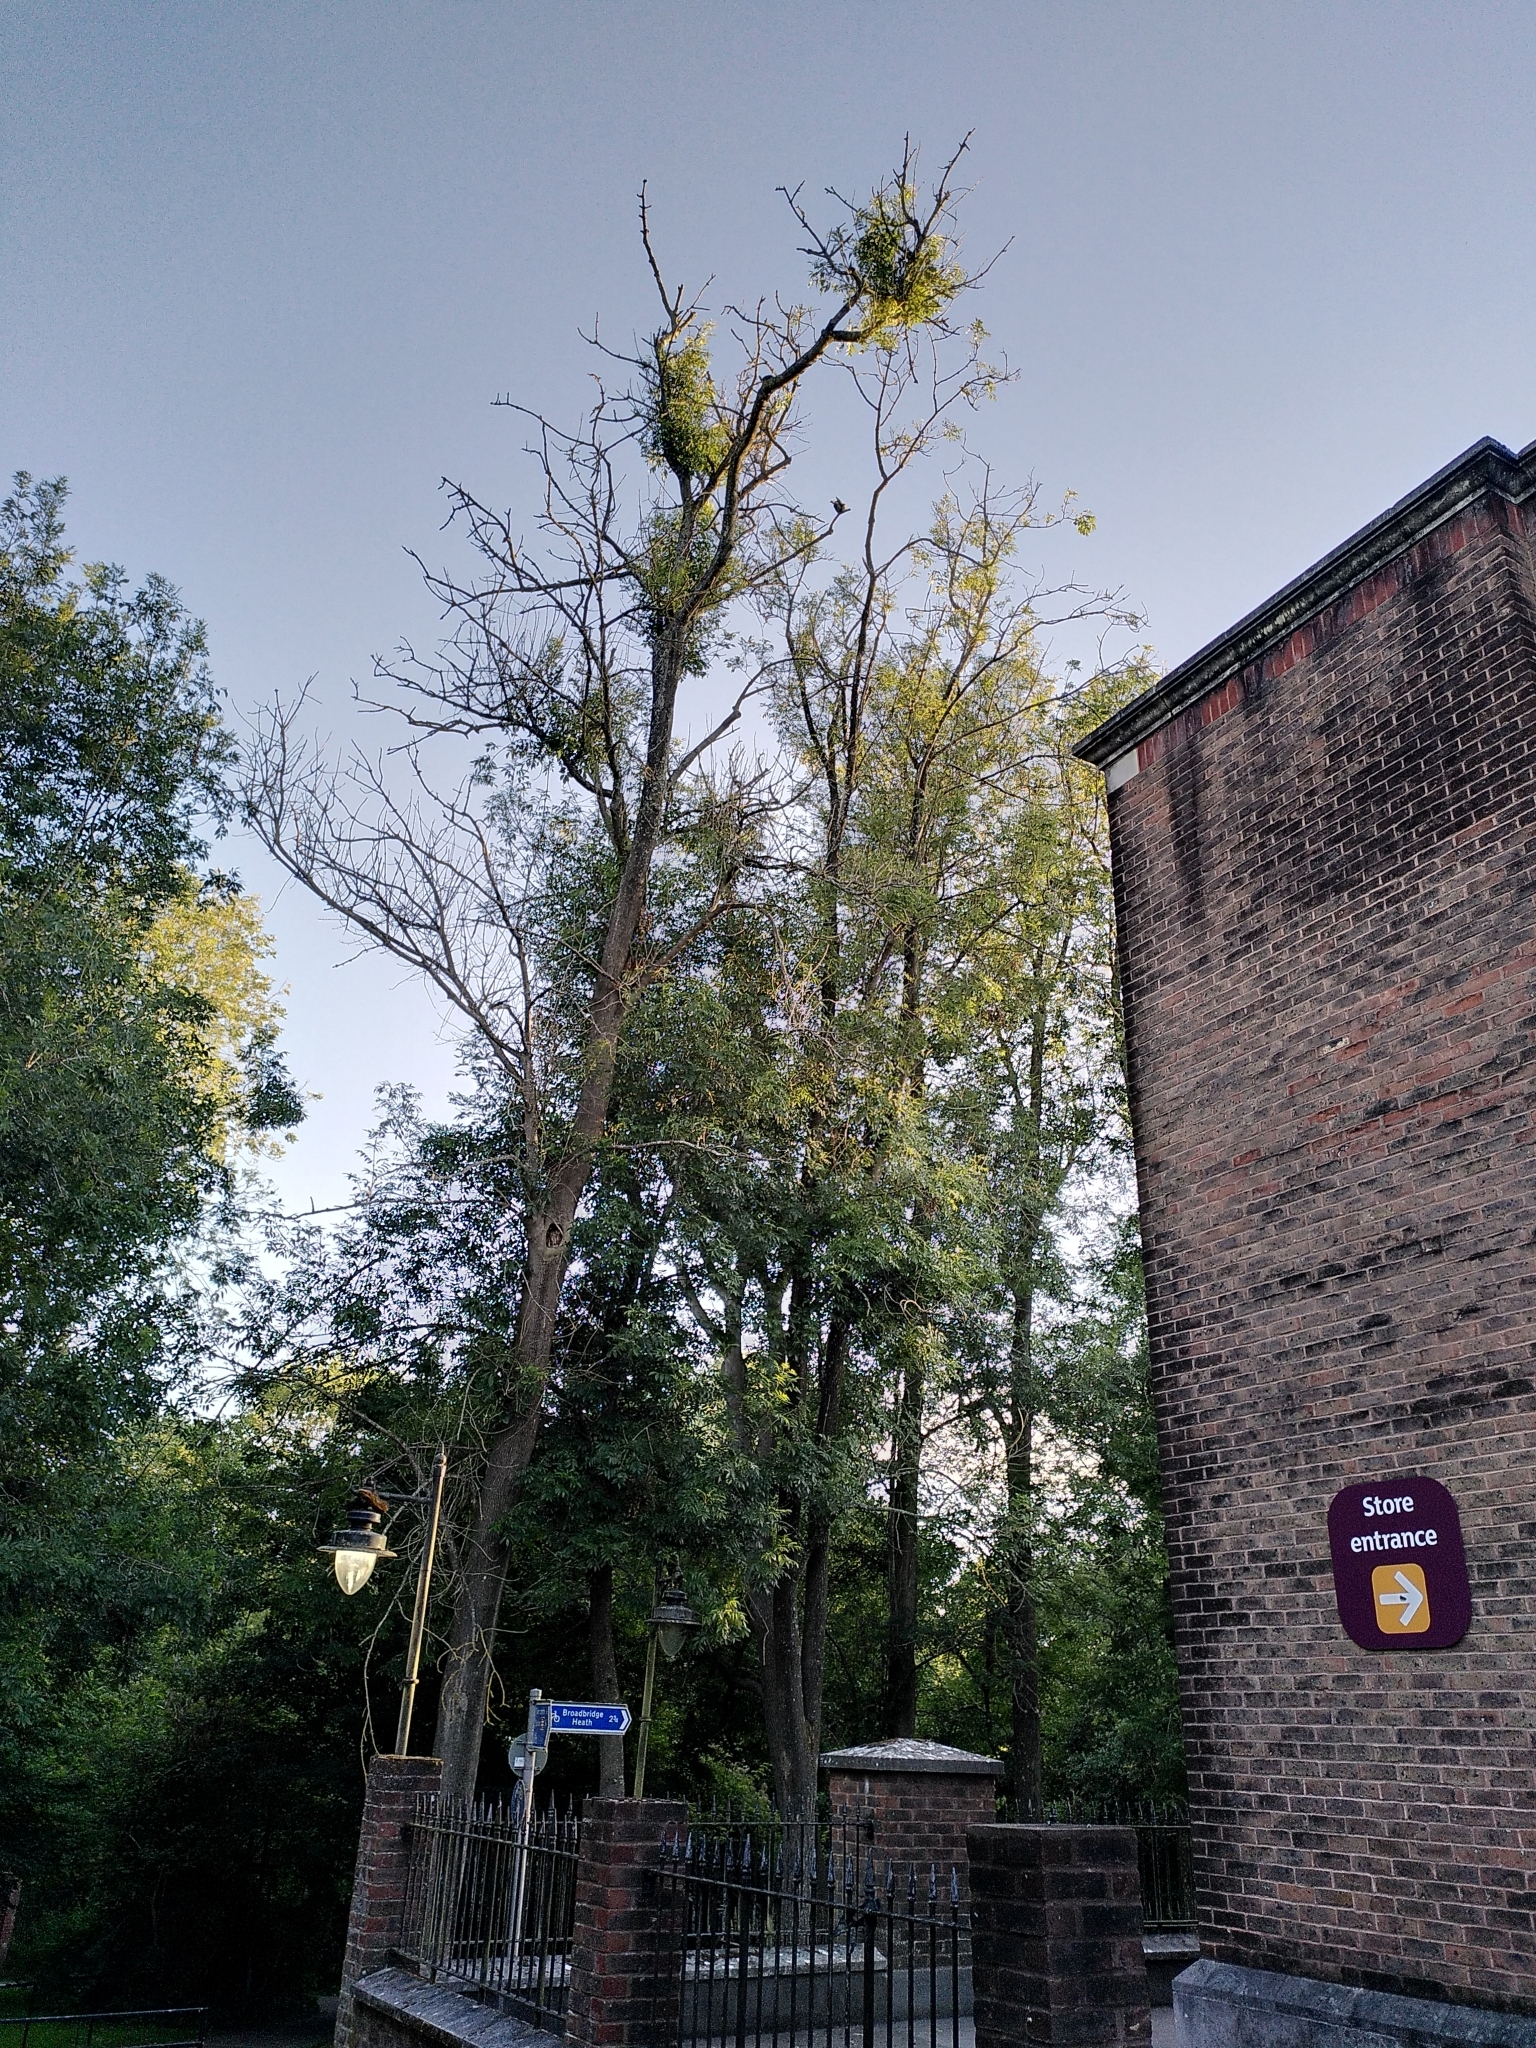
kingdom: Plantae
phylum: Tracheophyta
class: Magnoliopsida
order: Lamiales
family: Oleaceae
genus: Fraxinus
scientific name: Fraxinus excelsior
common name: European ash
